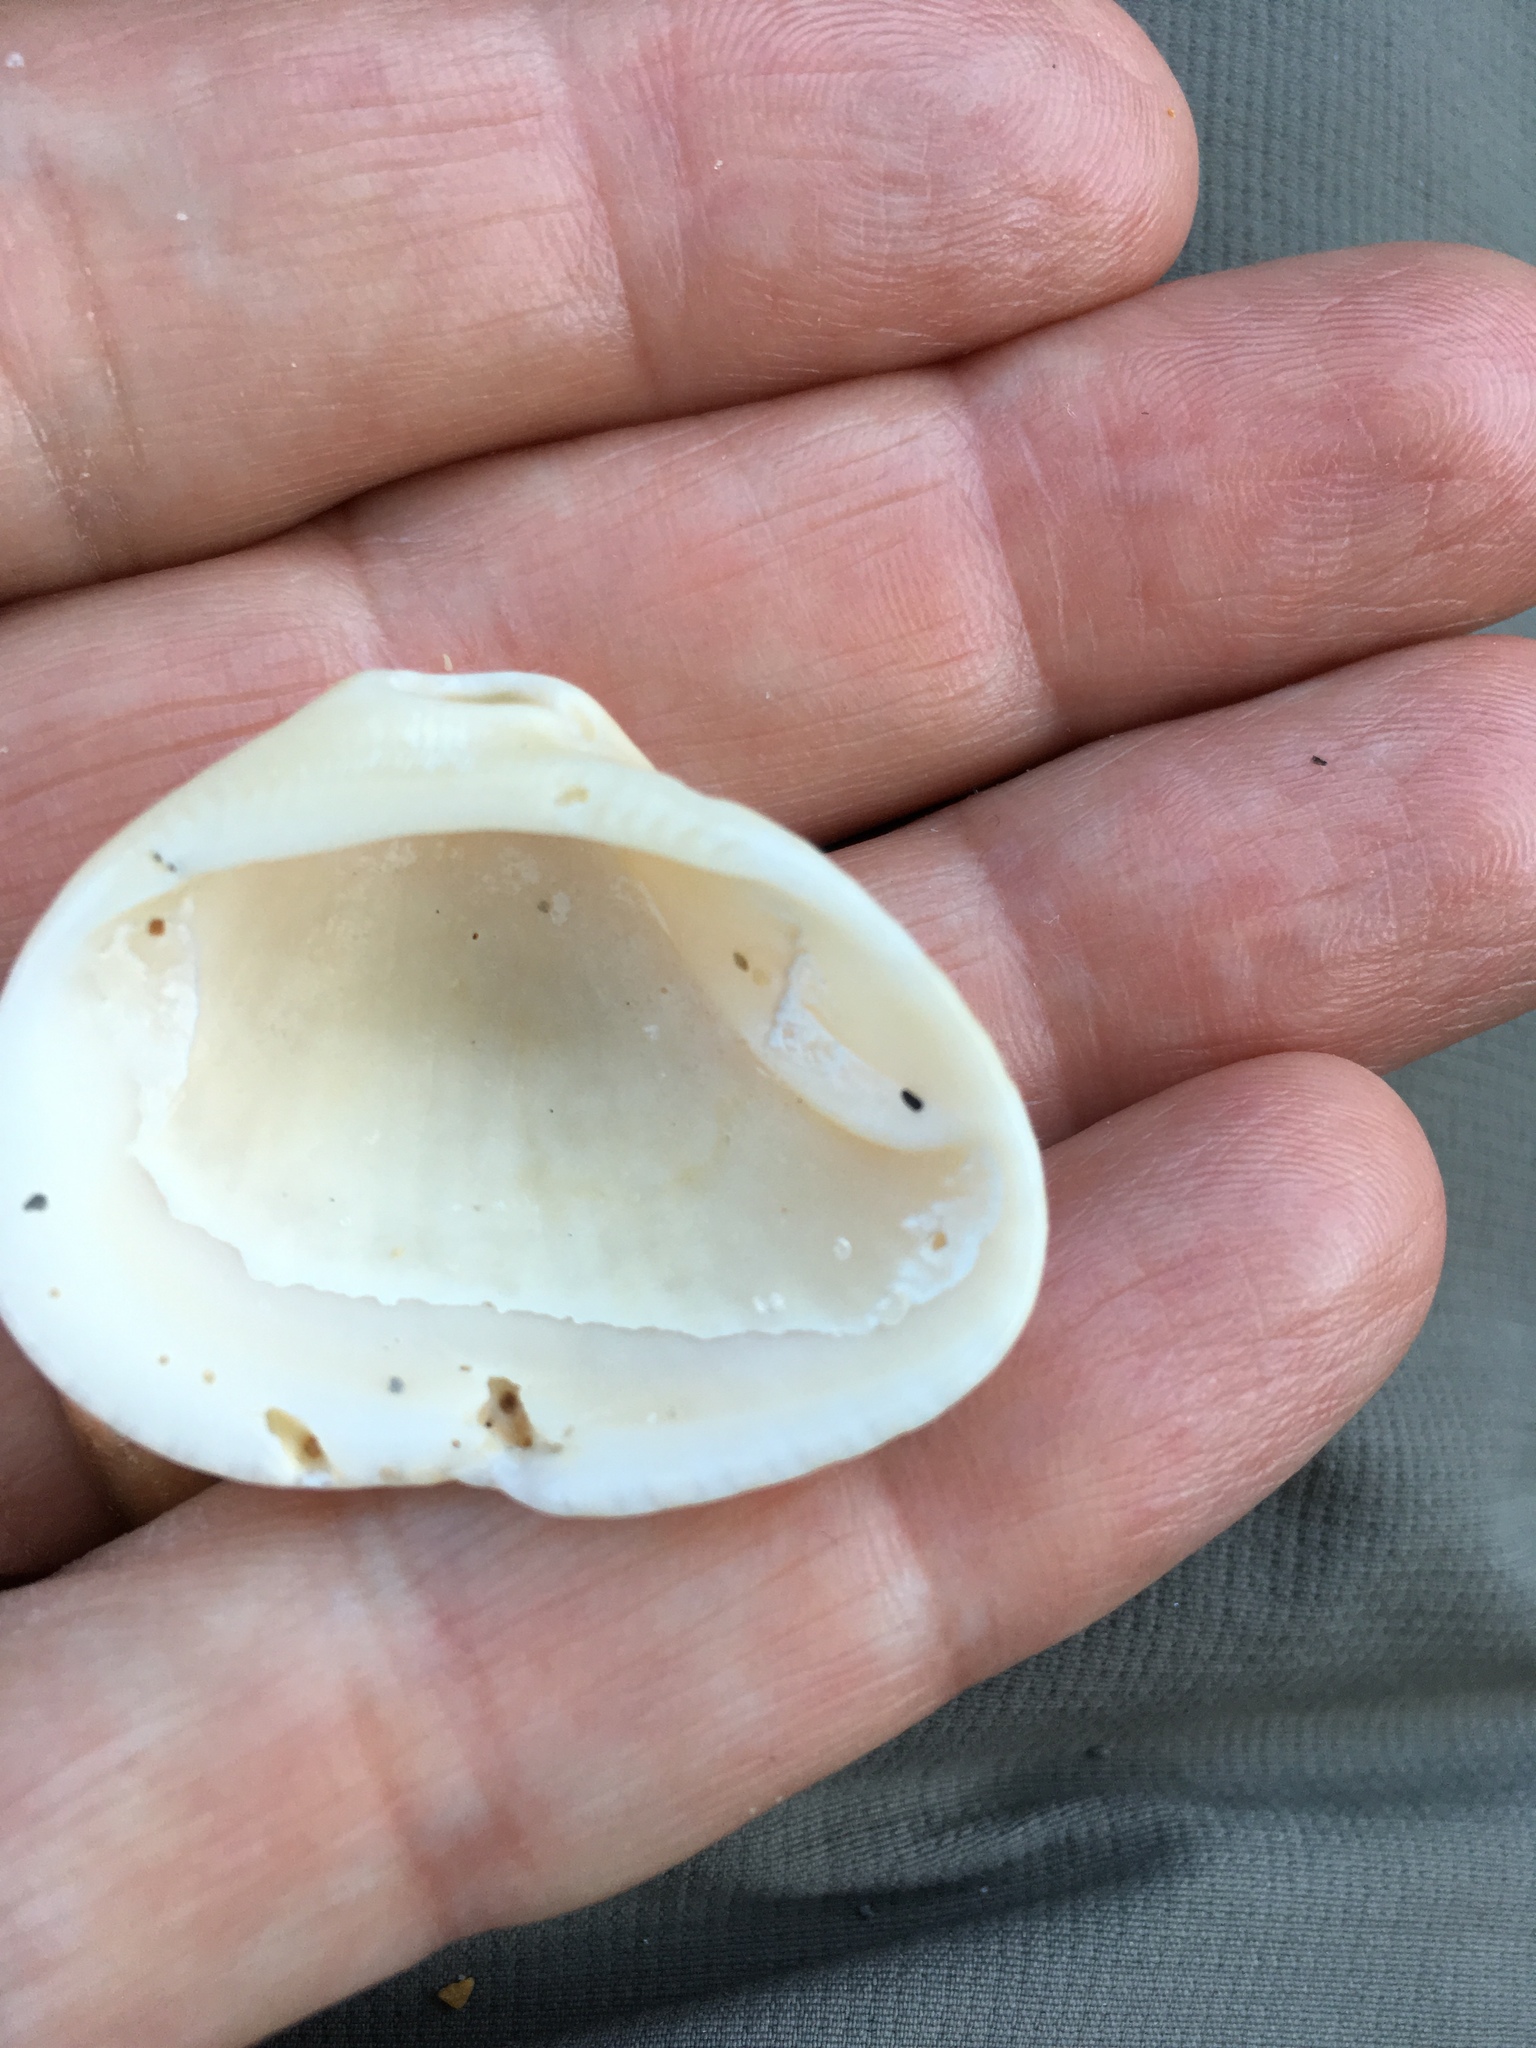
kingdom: Animalia
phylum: Mollusca
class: Bivalvia
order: Arcida
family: Noetiidae
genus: Noetia
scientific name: Noetia ponderosa
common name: Ponderous ark
